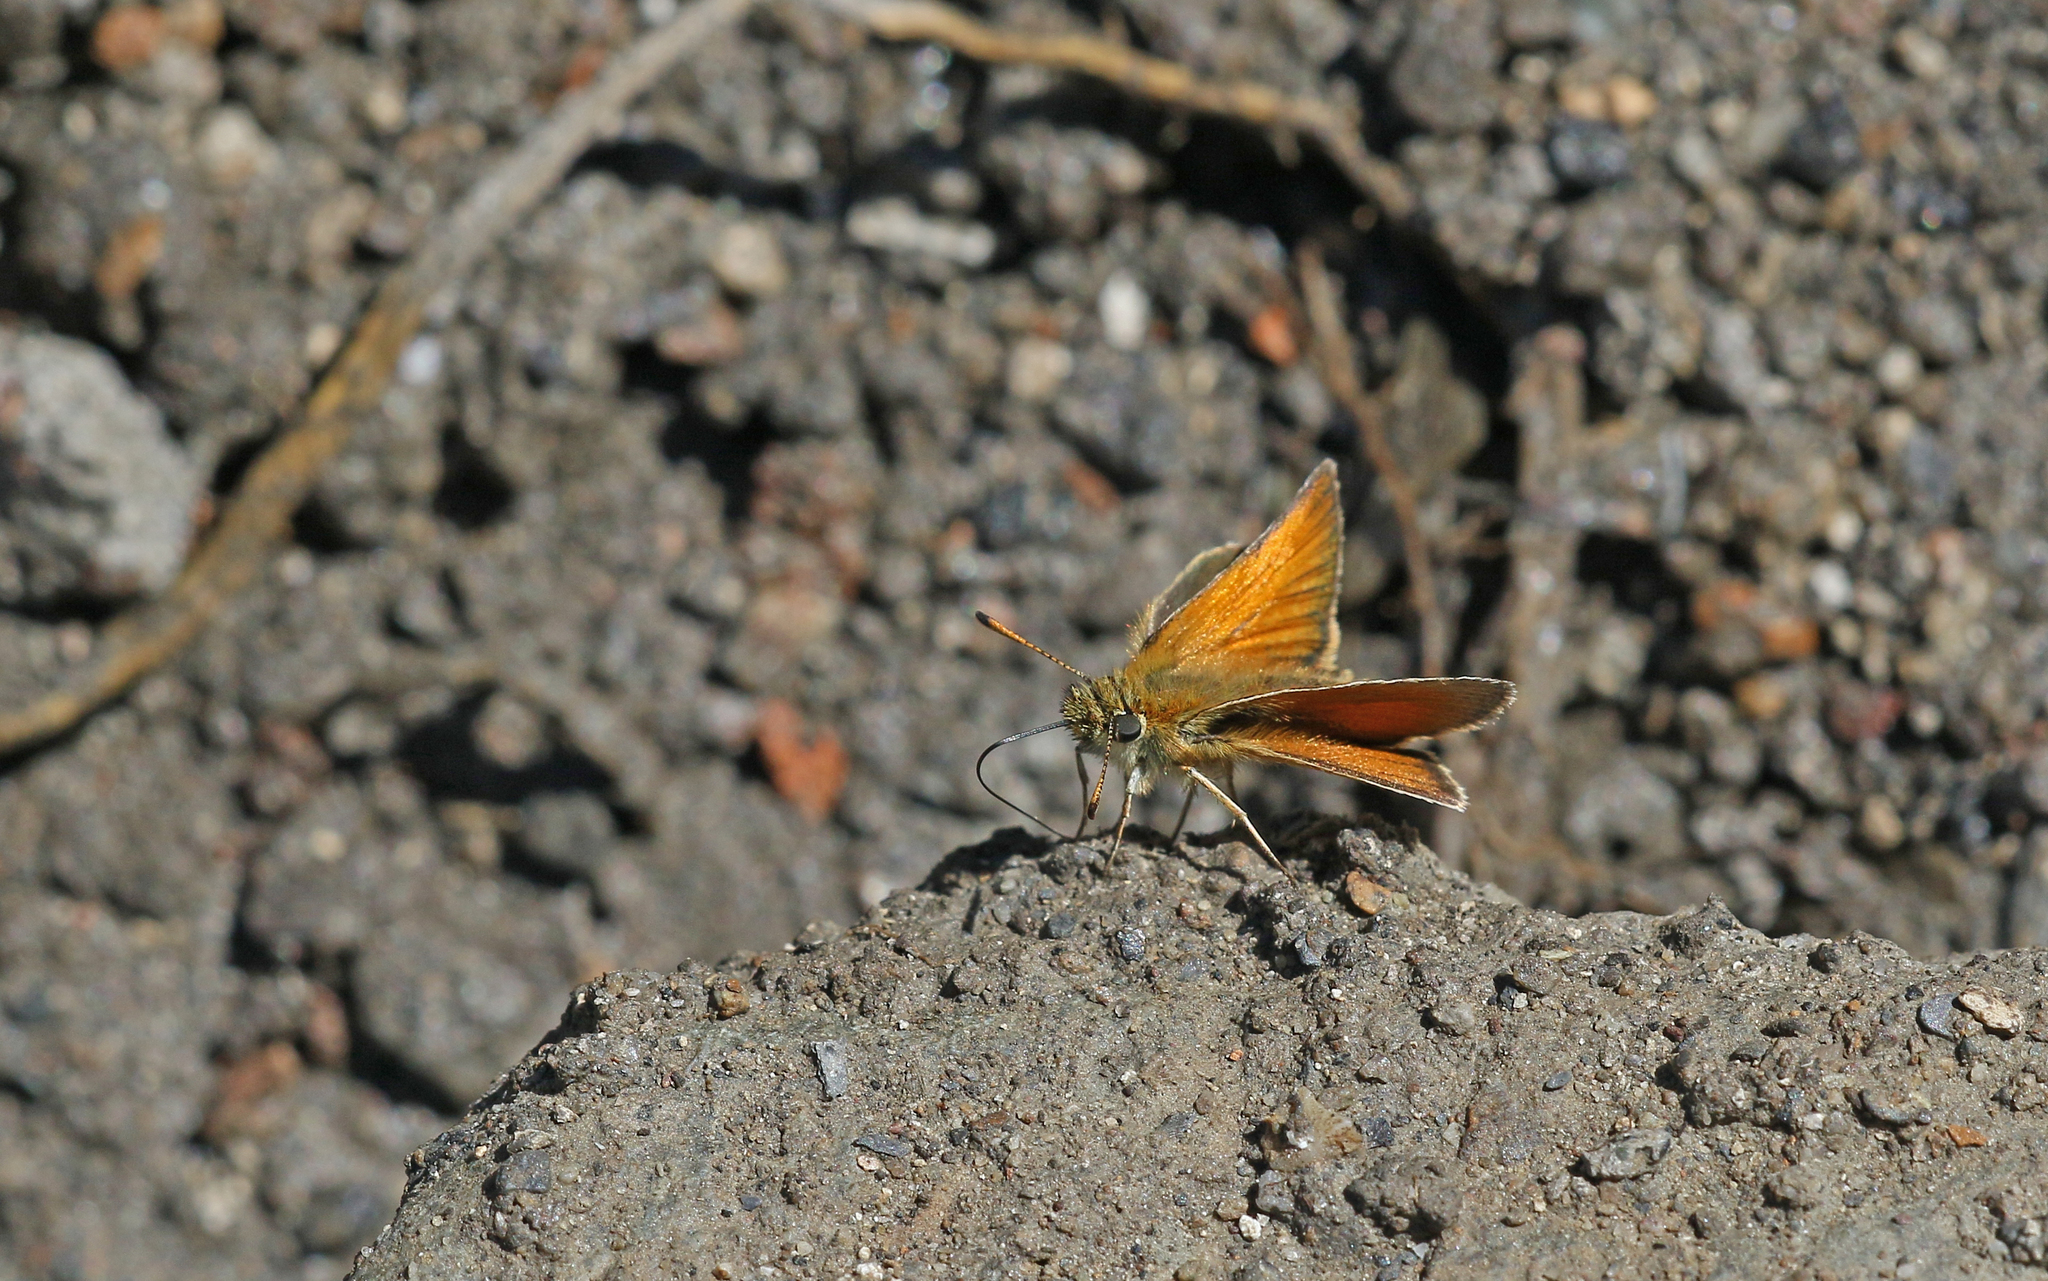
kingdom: Animalia
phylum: Arthropoda
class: Insecta
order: Lepidoptera
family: Hesperiidae
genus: Thymelicus
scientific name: Thymelicus lineola
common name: Essex skipper
